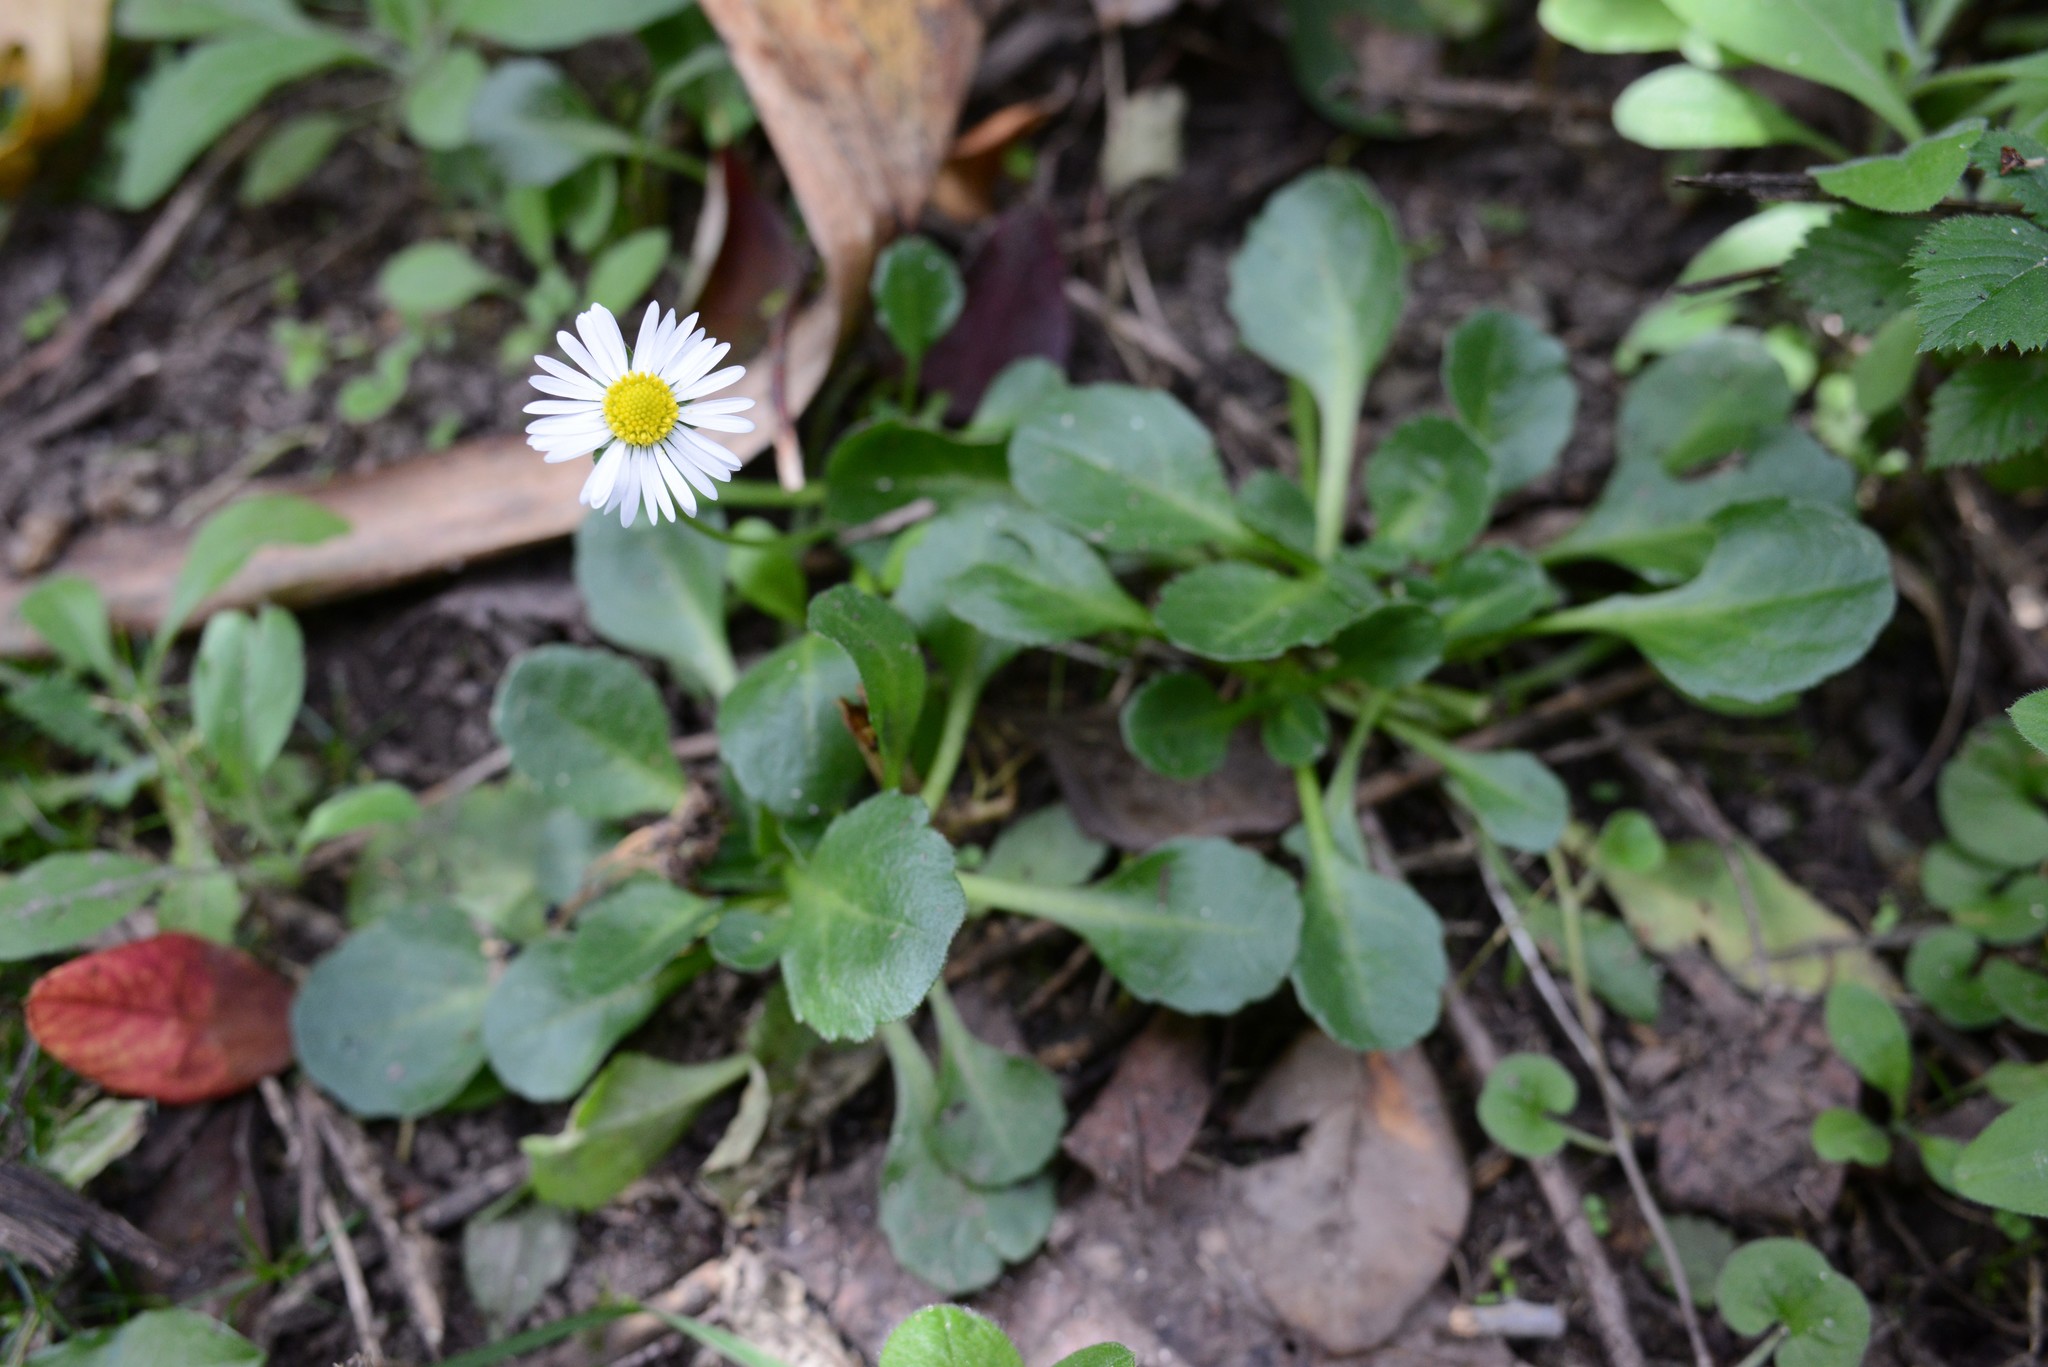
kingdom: Plantae
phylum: Tracheophyta
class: Magnoliopsida
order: Asterales
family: Asteraceae
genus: Bellis
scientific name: Bellis perennis
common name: Lawndaisy
